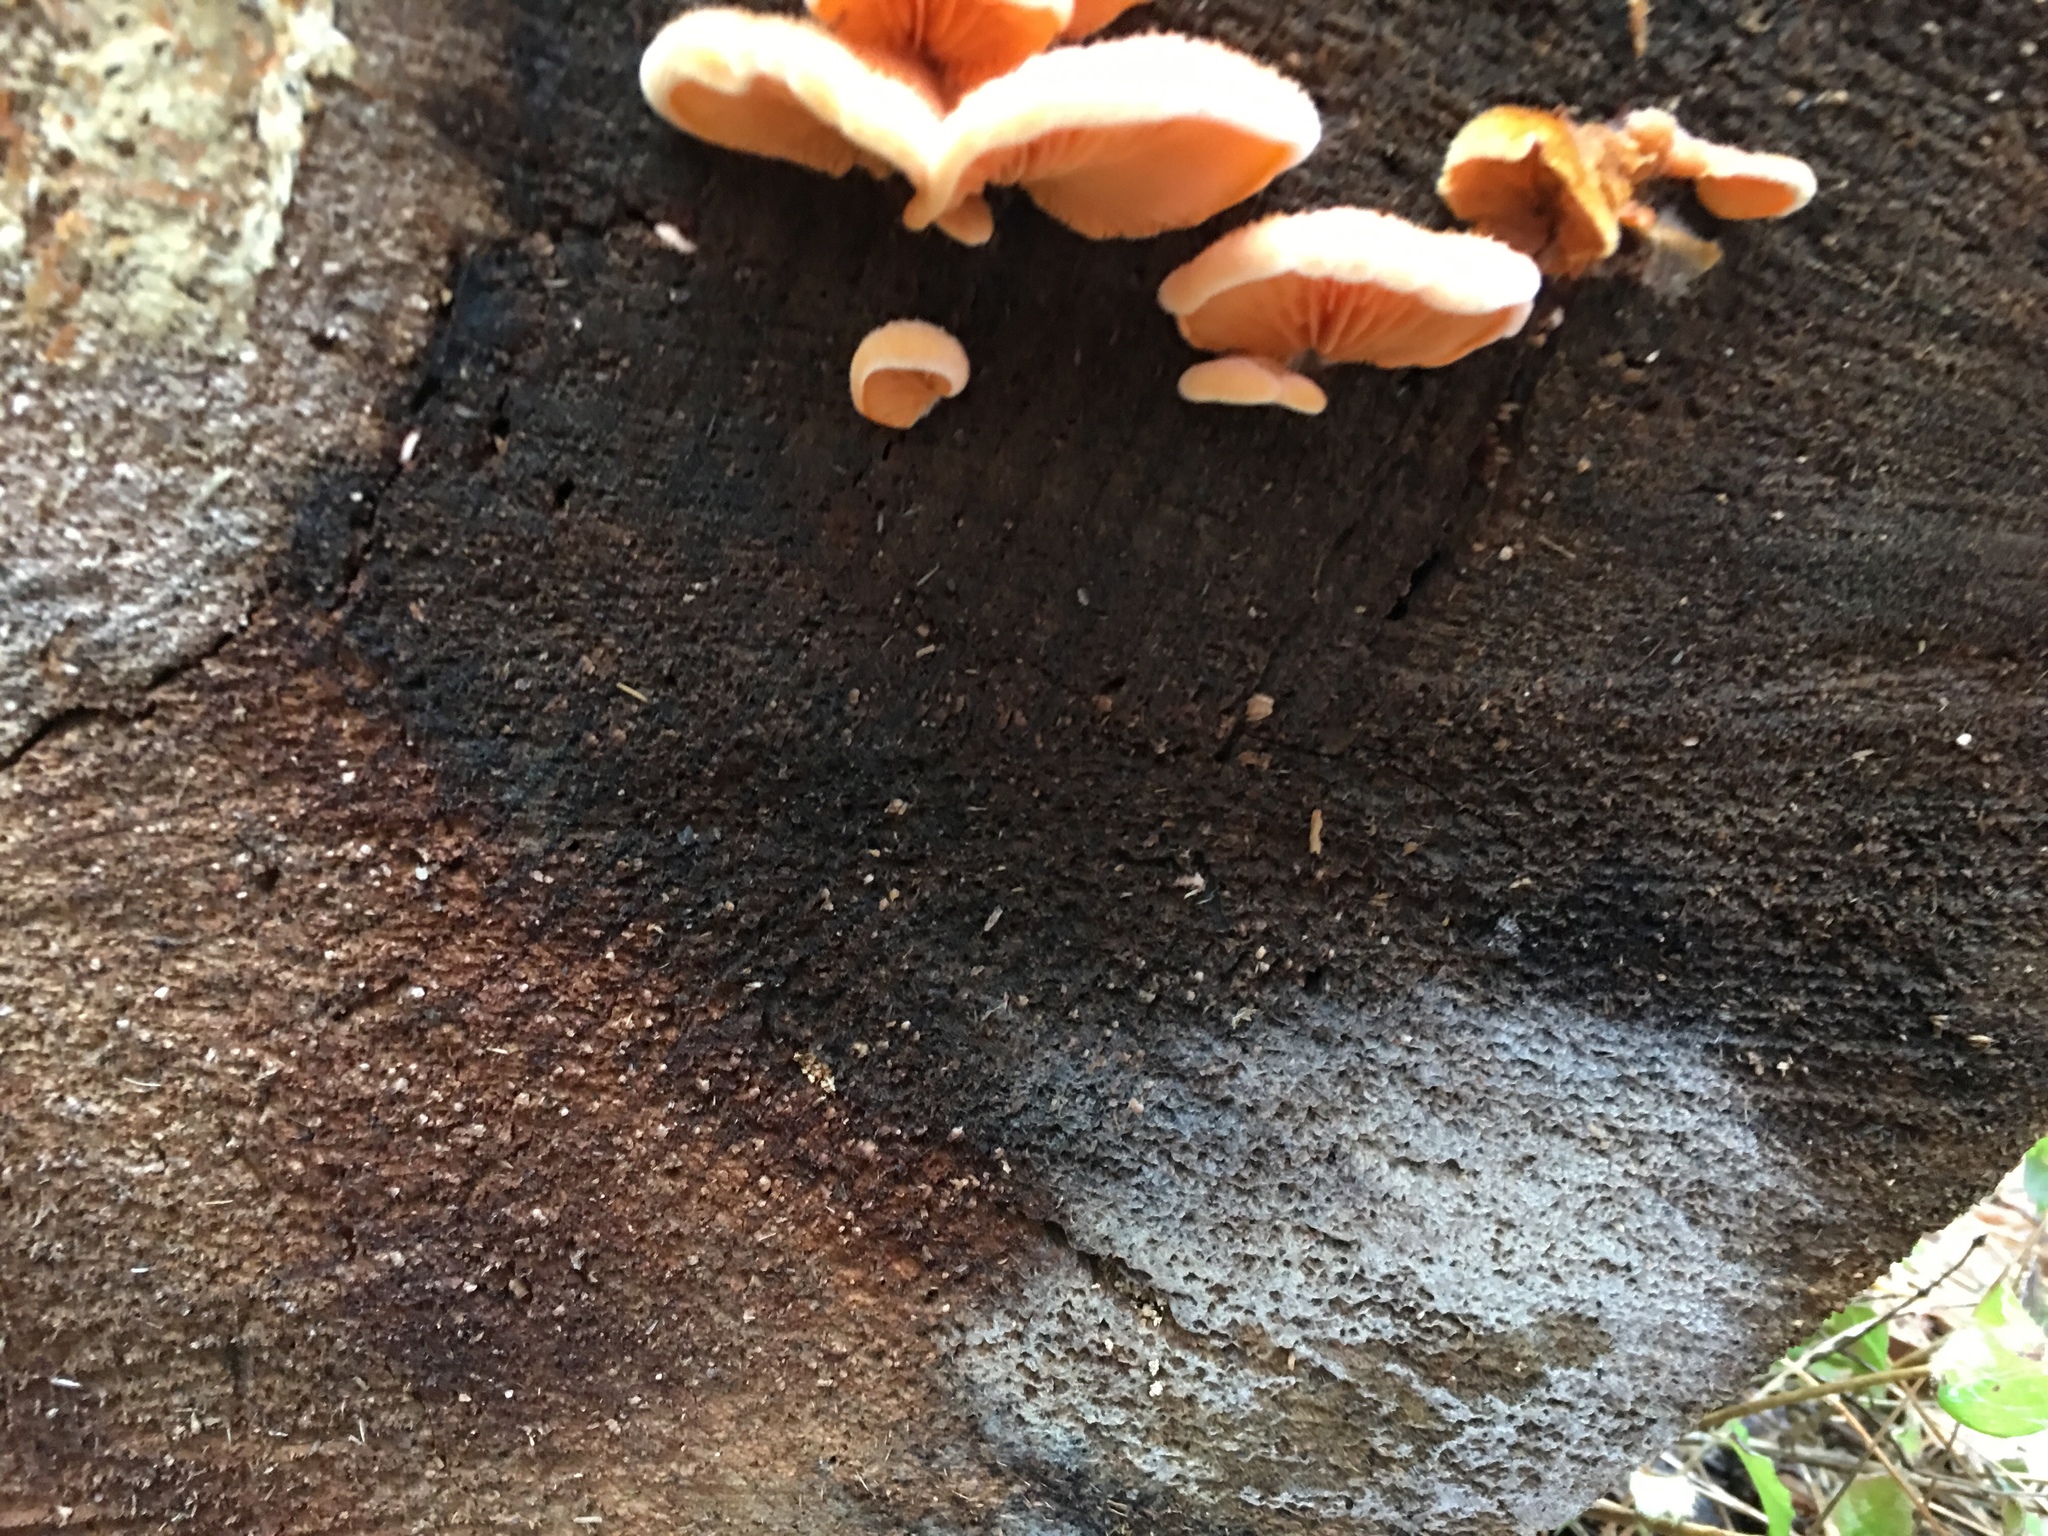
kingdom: Fungi
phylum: Basidiomycota
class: Agaricomycetes
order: Agaricales
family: Phyllotopsidaceae
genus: Phyllotopsis
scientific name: Phyllotopsis nidulans
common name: Orange mock oyster
